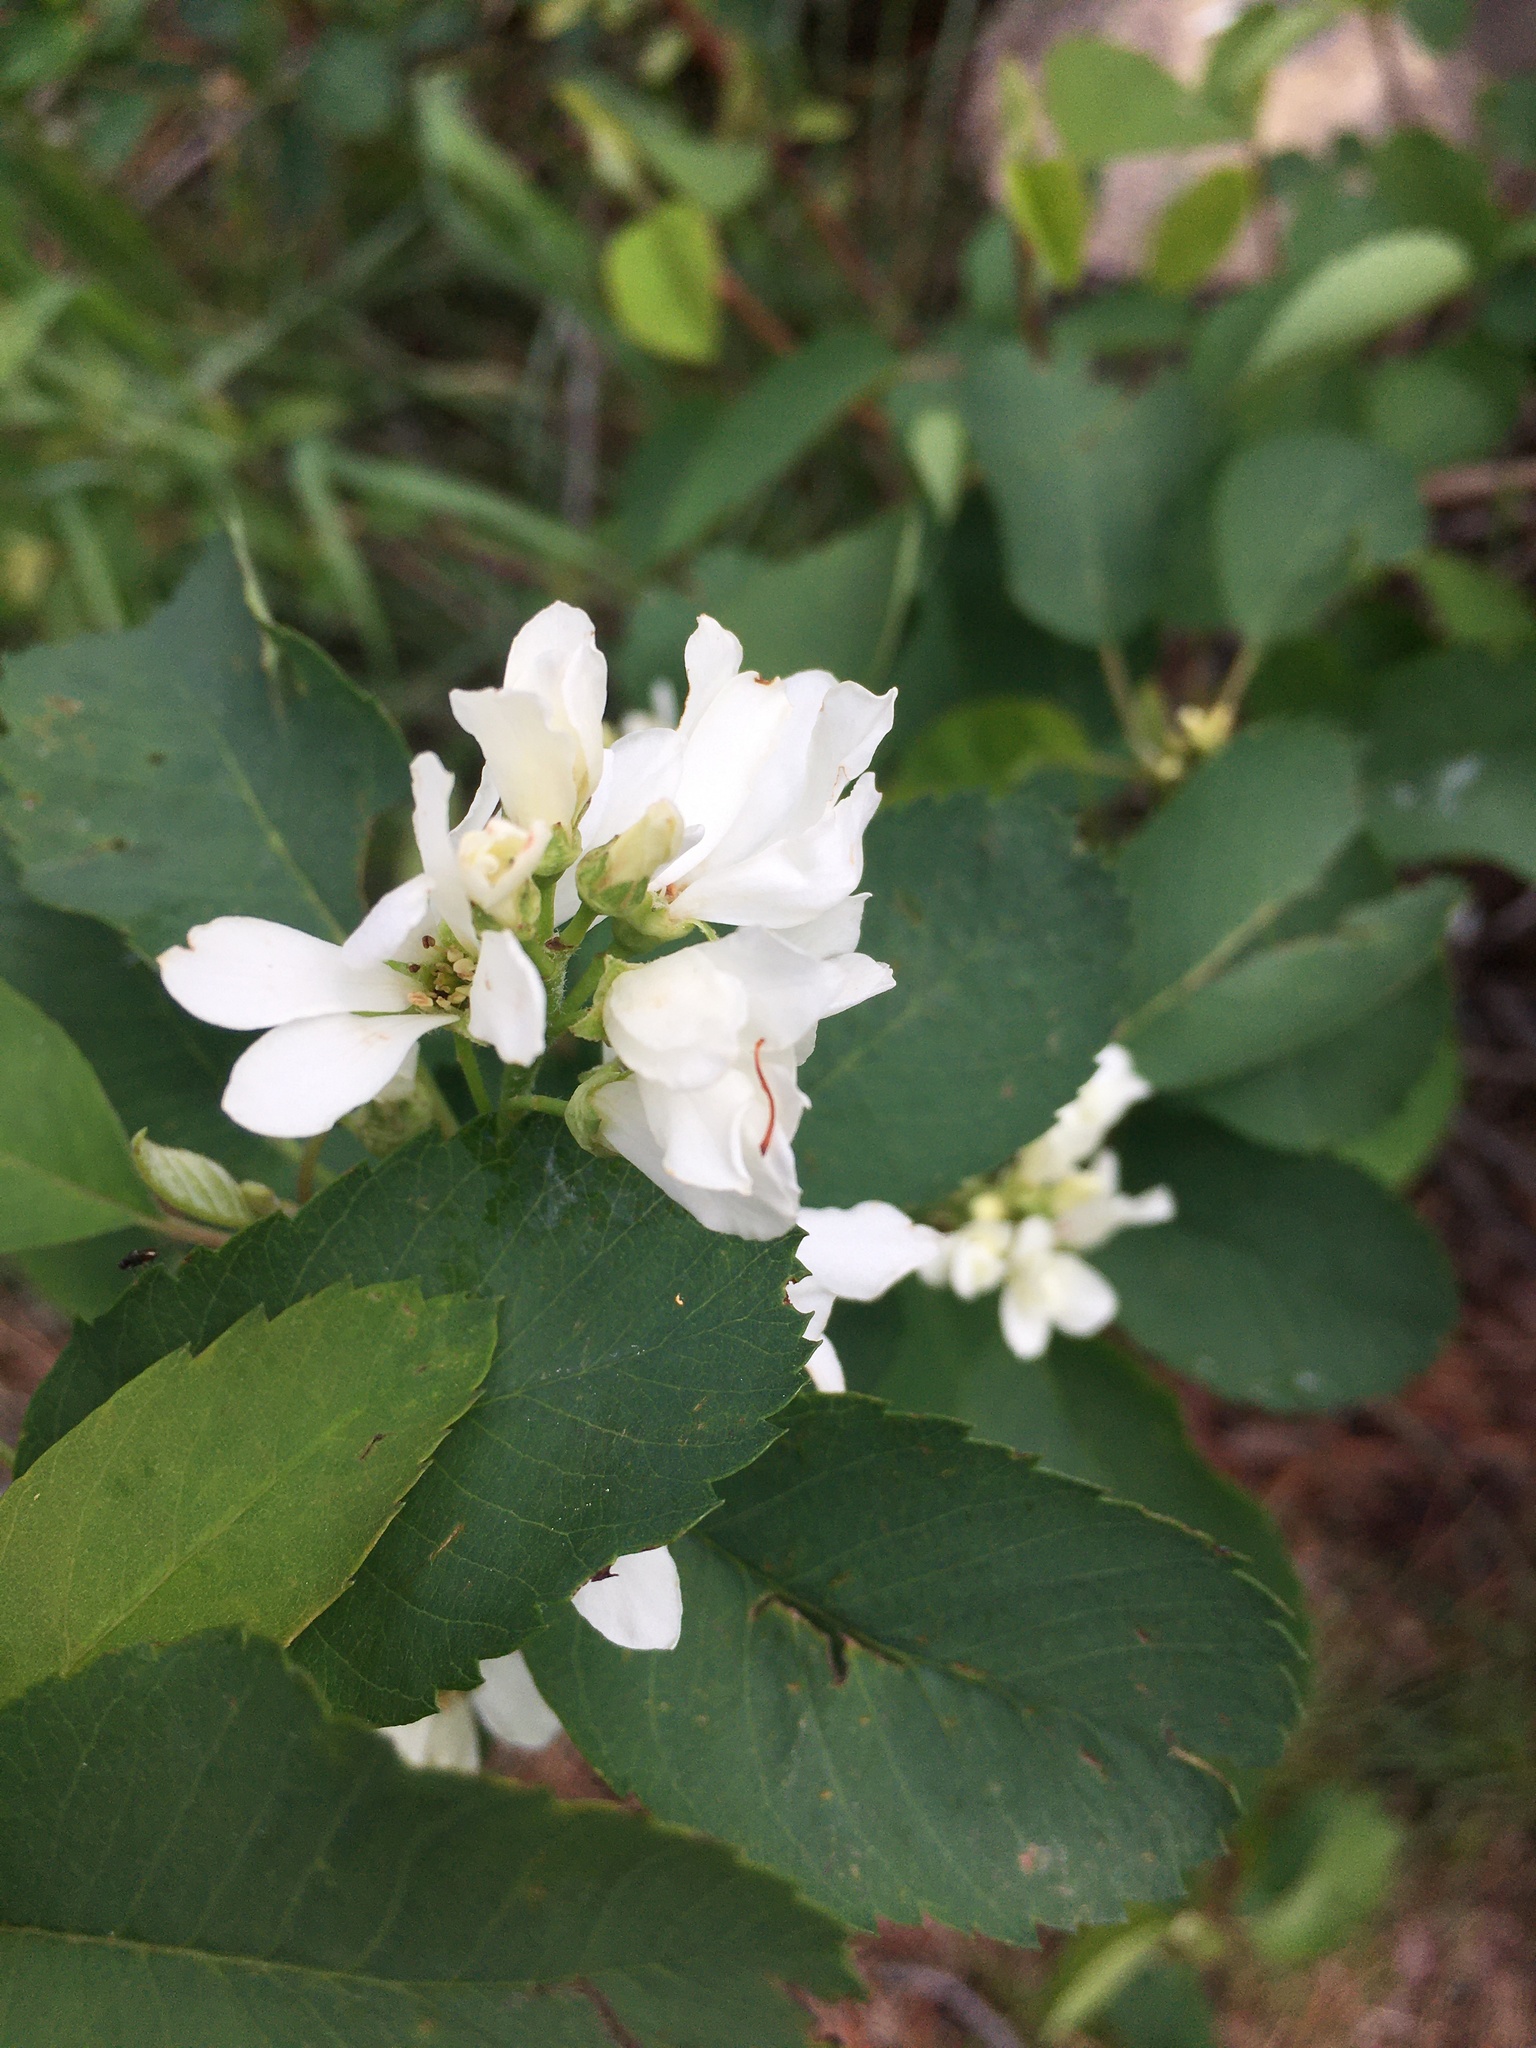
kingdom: Plantae
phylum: Tracheophyta
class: Magnoliopsida
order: Rosales
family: Rosaceae
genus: Amelanchier
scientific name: Amelanchier alnifolia
